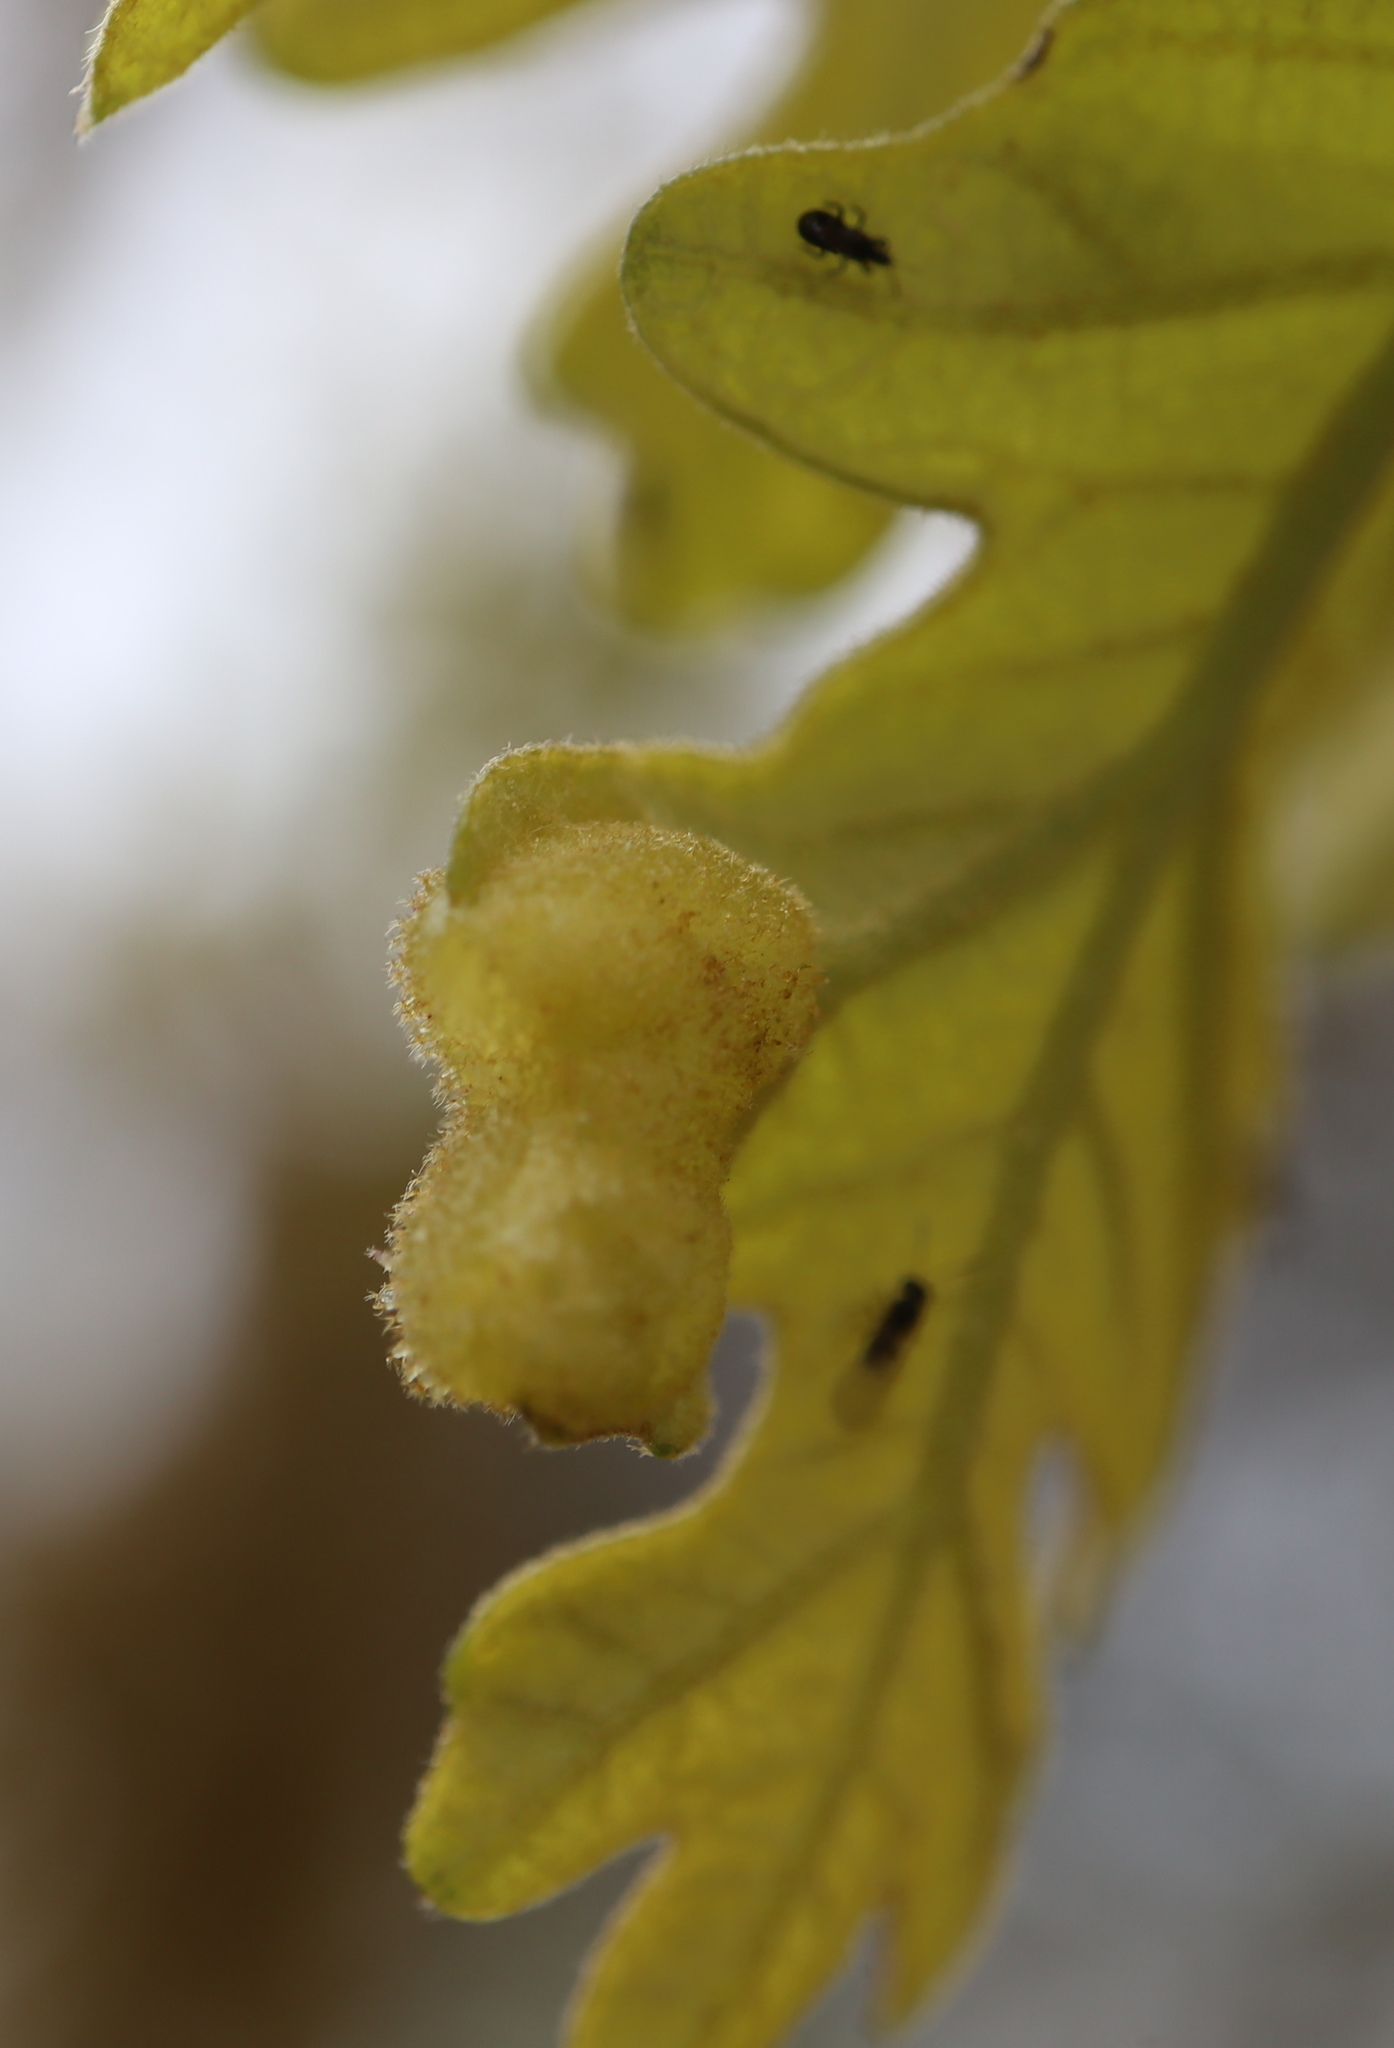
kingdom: Animalia
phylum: Arthropoda
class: Insecta
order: Hymenoptera
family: Cynipidae
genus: Neuroterus
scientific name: Neuroterus quercusirregularis
